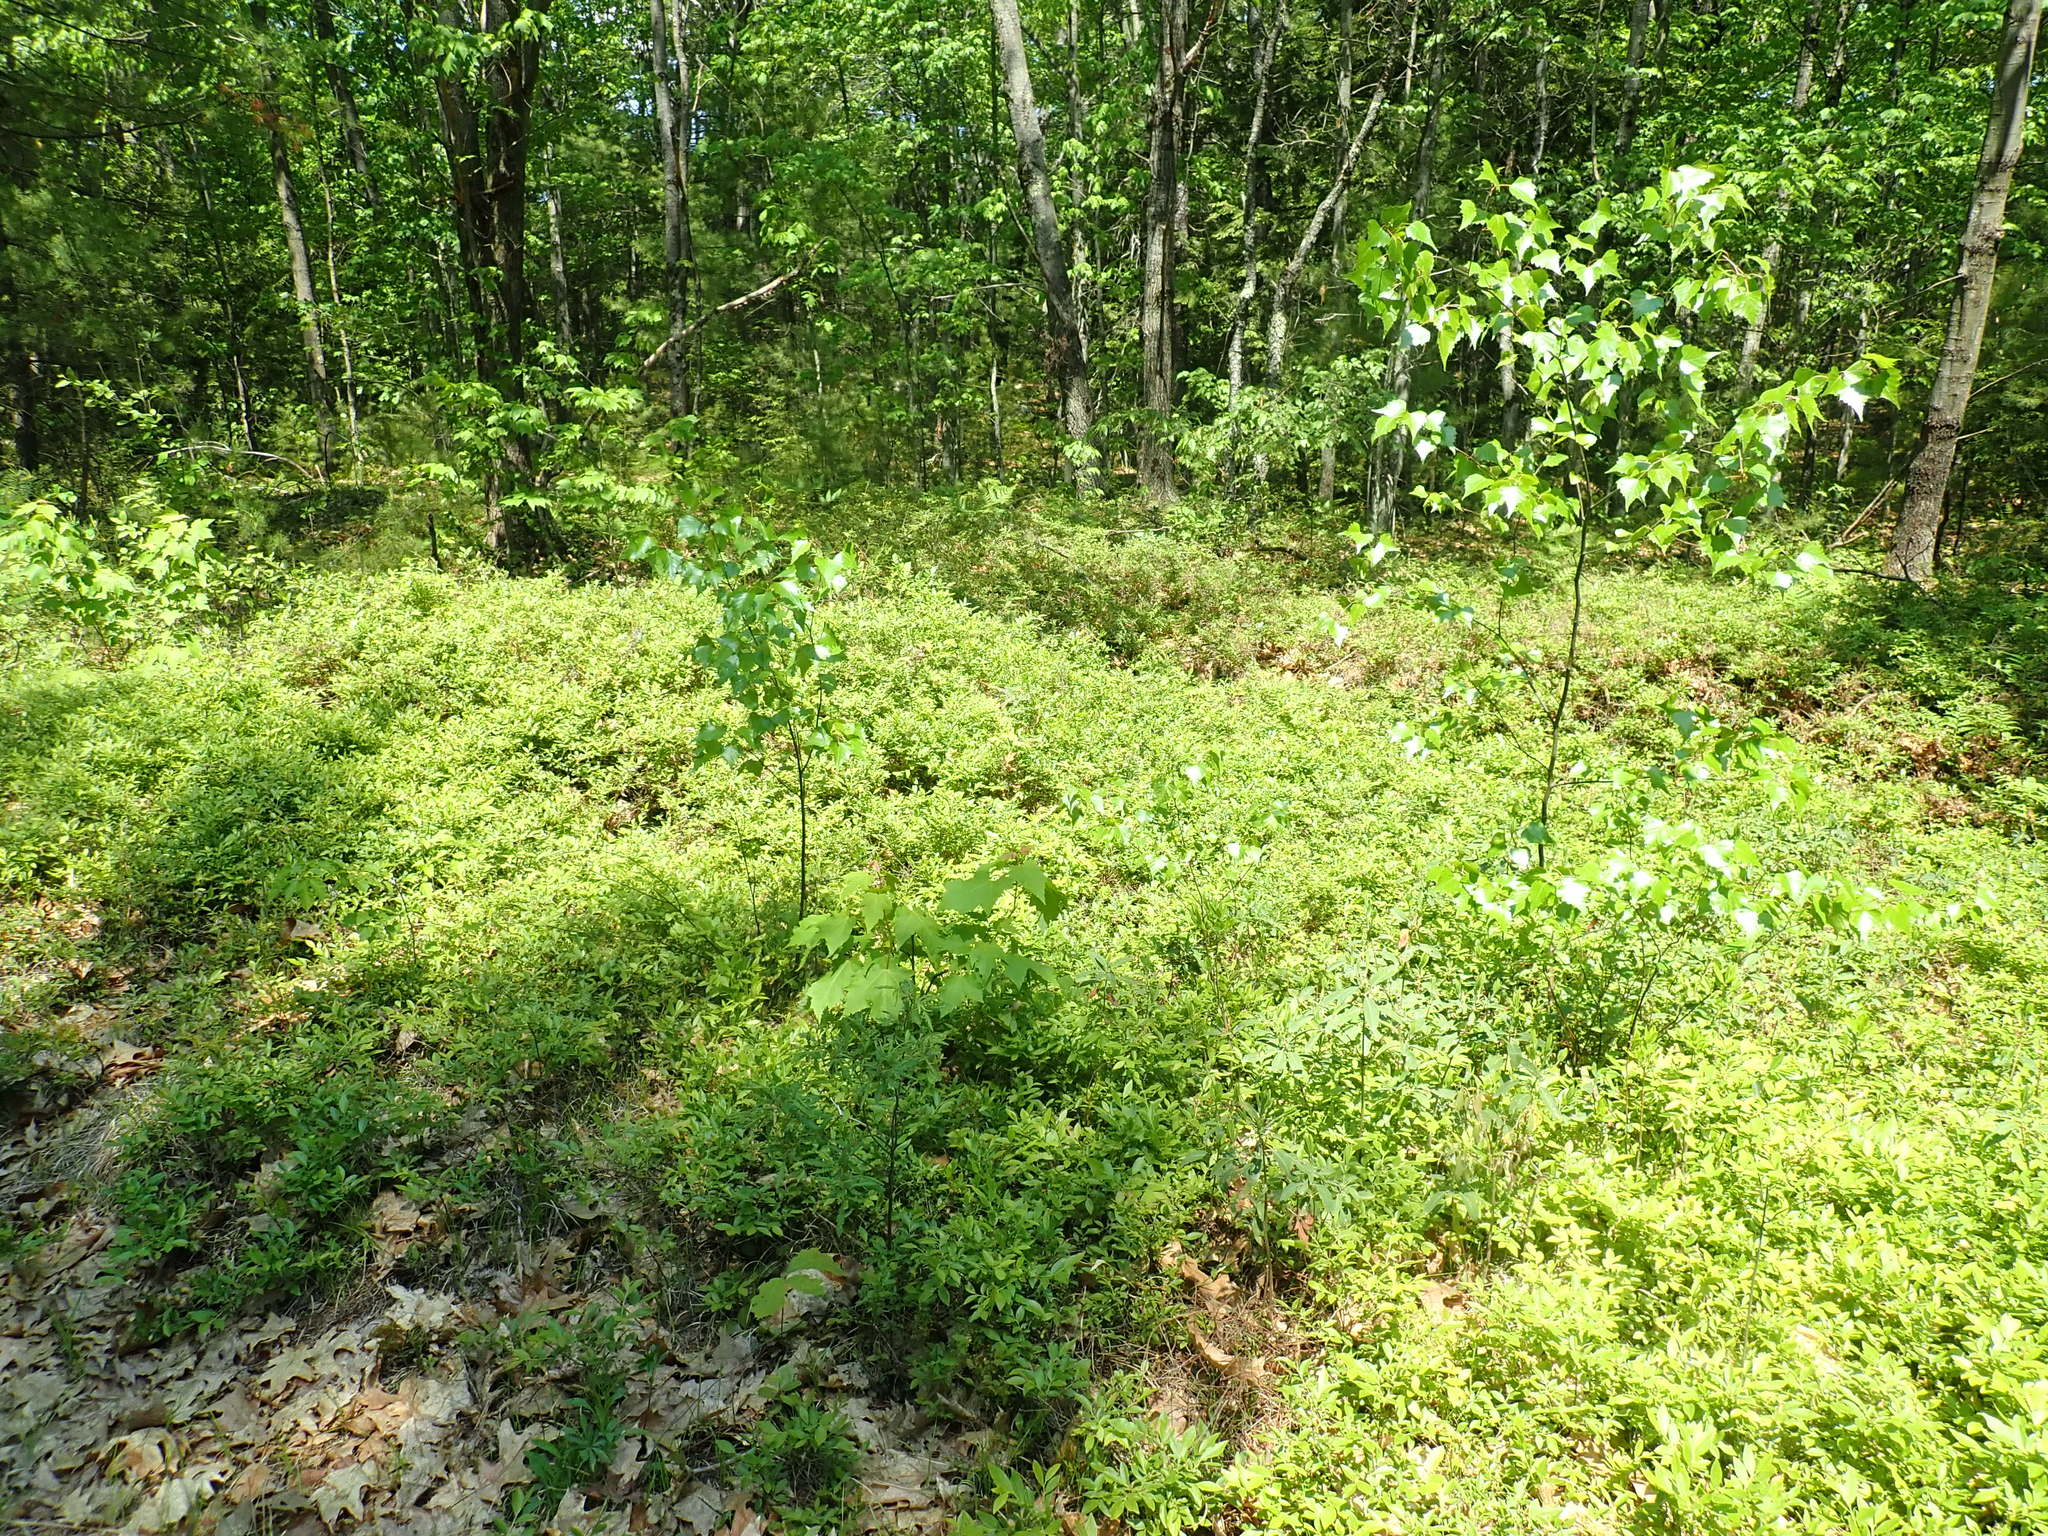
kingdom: Plantae
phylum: Tracheophyta
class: Magnoliopsida
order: Ericales
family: Ericaceae
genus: Vaccinium
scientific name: Vaccinium angustifolium
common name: Early lowbush blueberry
